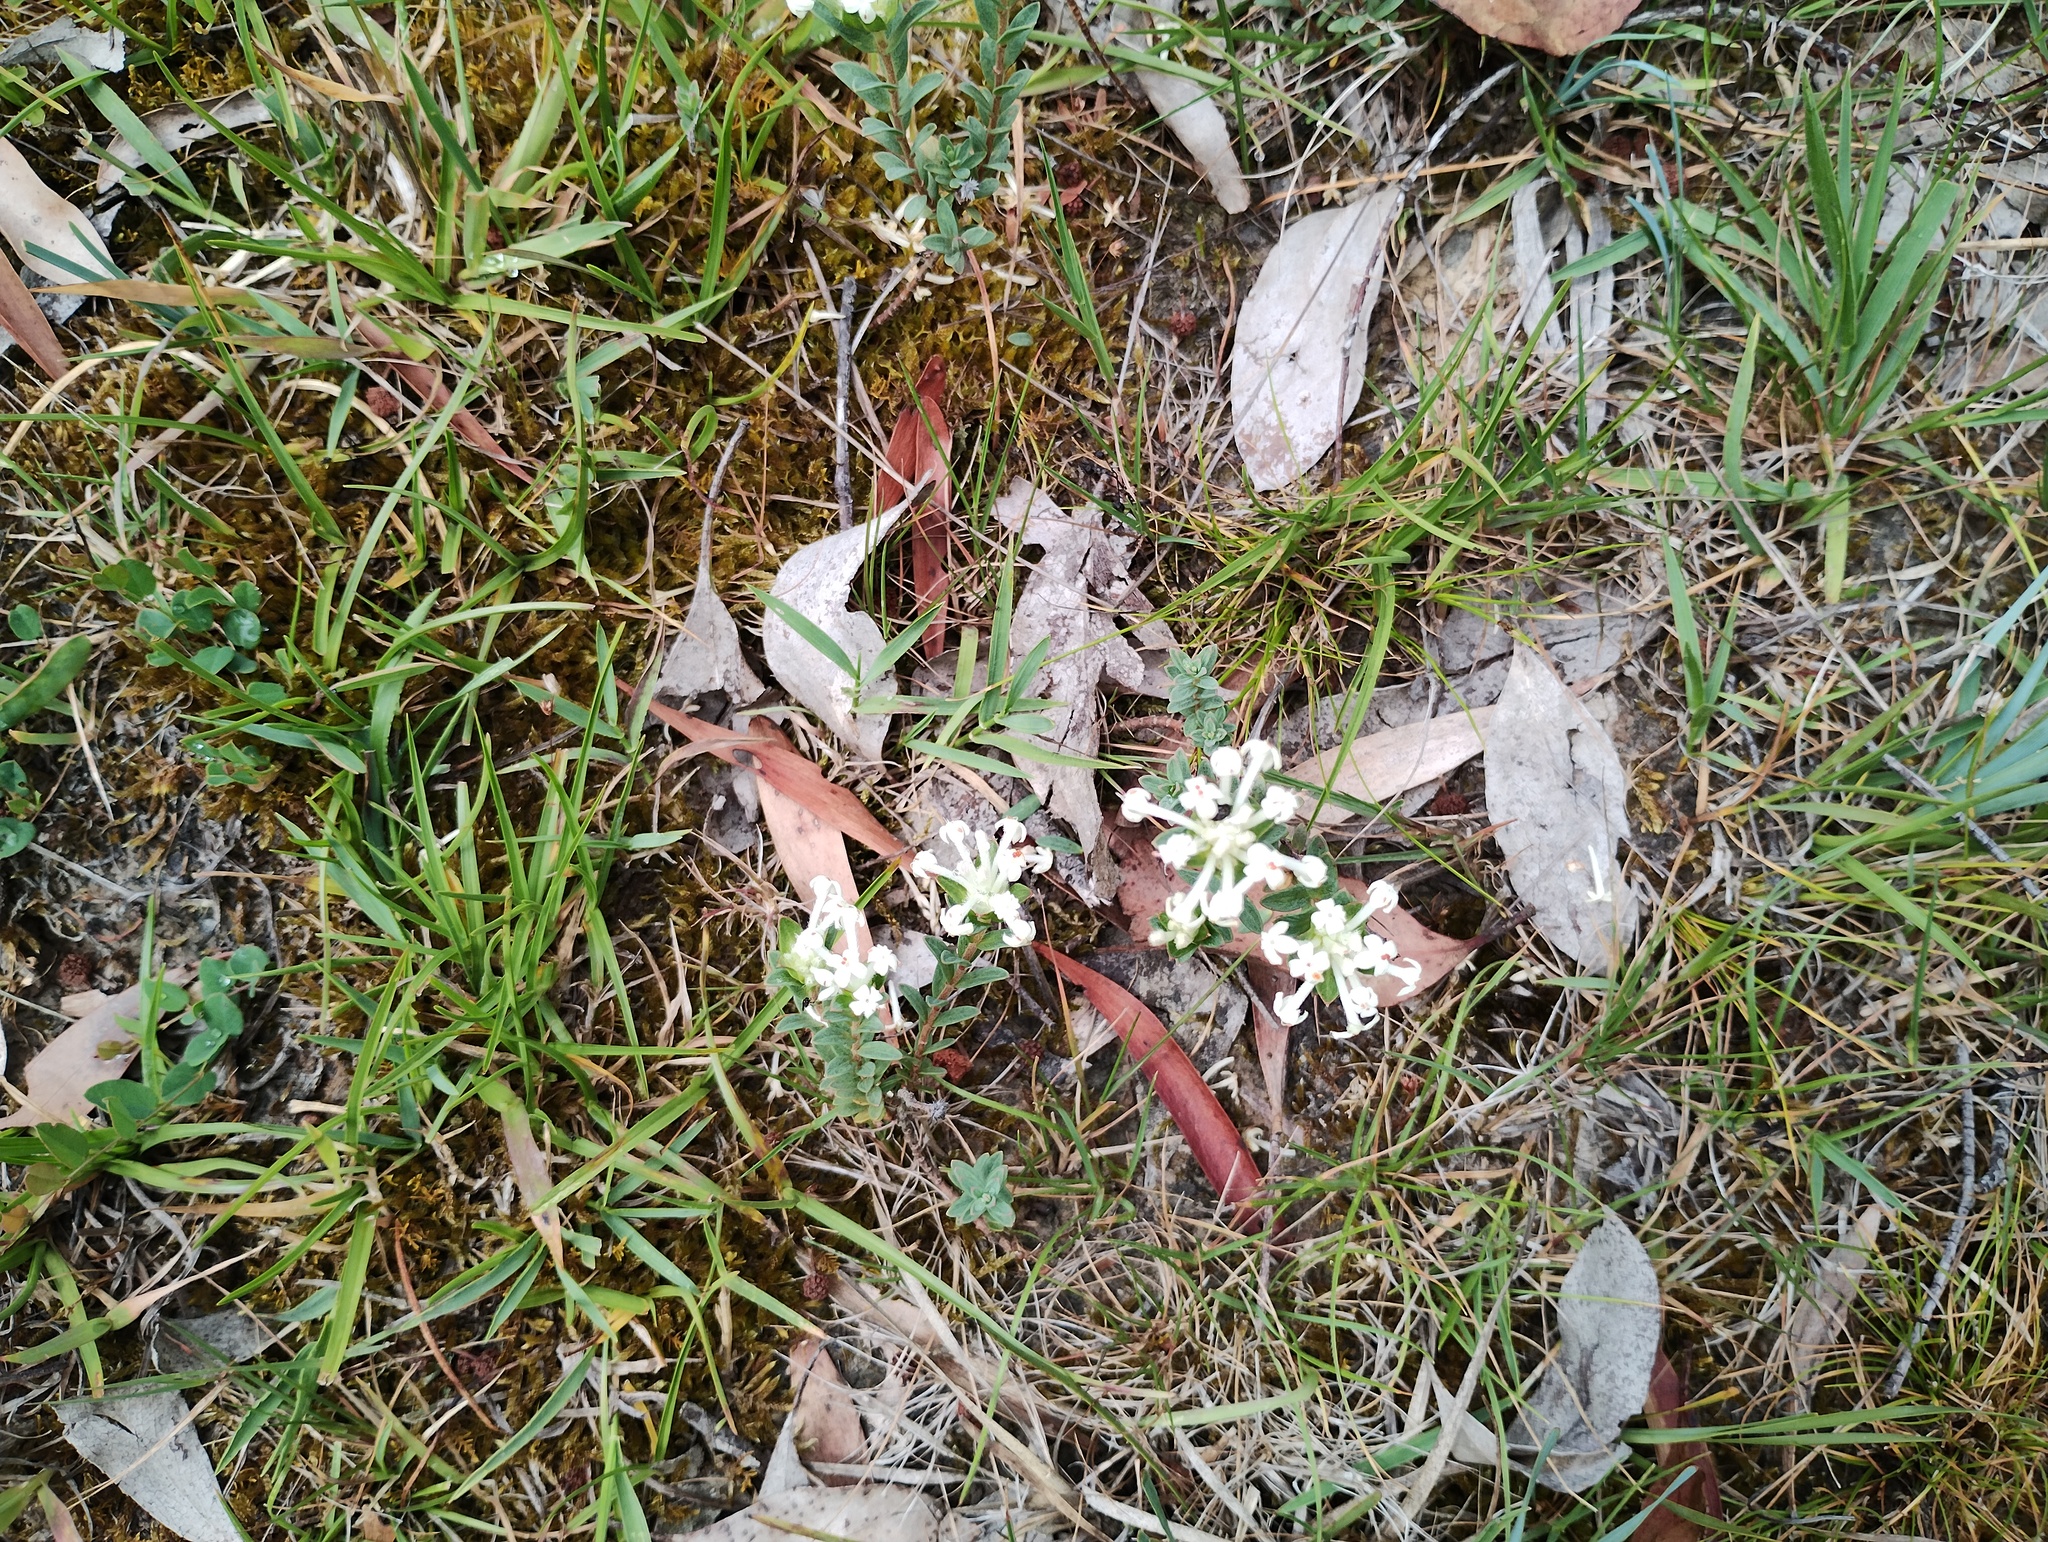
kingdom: Plantae
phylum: Tracheophyta
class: Magnoliopsida
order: Malvales
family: Thymelaeaceae
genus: Pimelea
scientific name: Pimelea humilis
